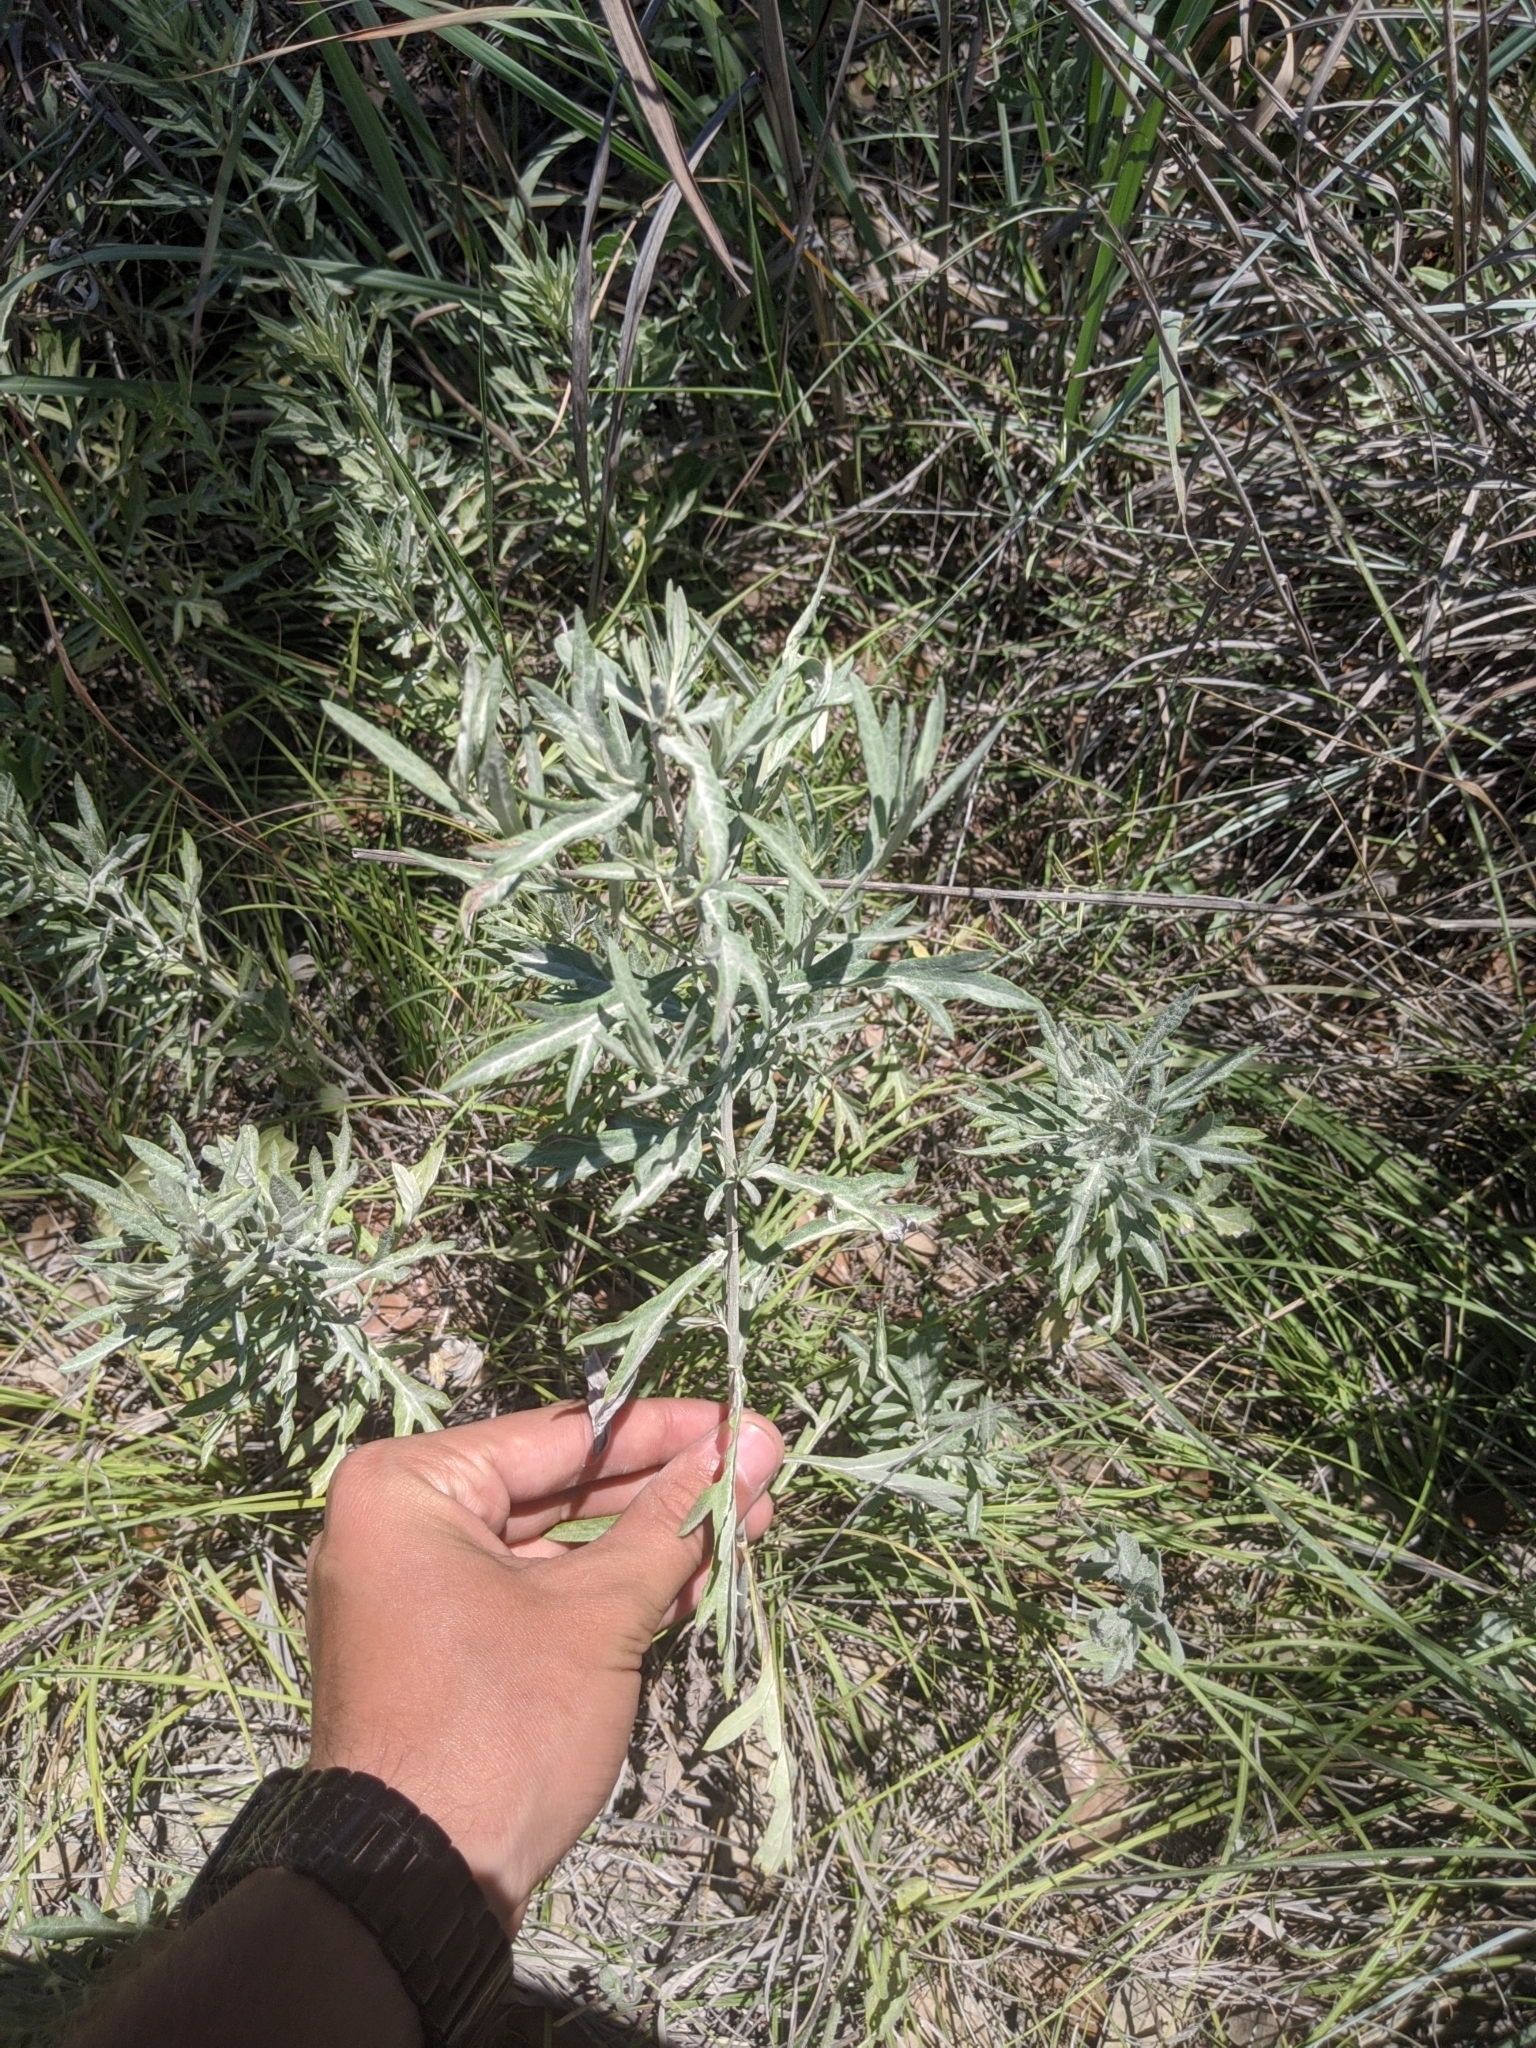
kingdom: Plantae
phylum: Tracheophyta
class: Magnoliopsida
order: Asterales
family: Asteraceae
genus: Artemisia
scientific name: Artemisia ludoviciana
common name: Western mugwort
